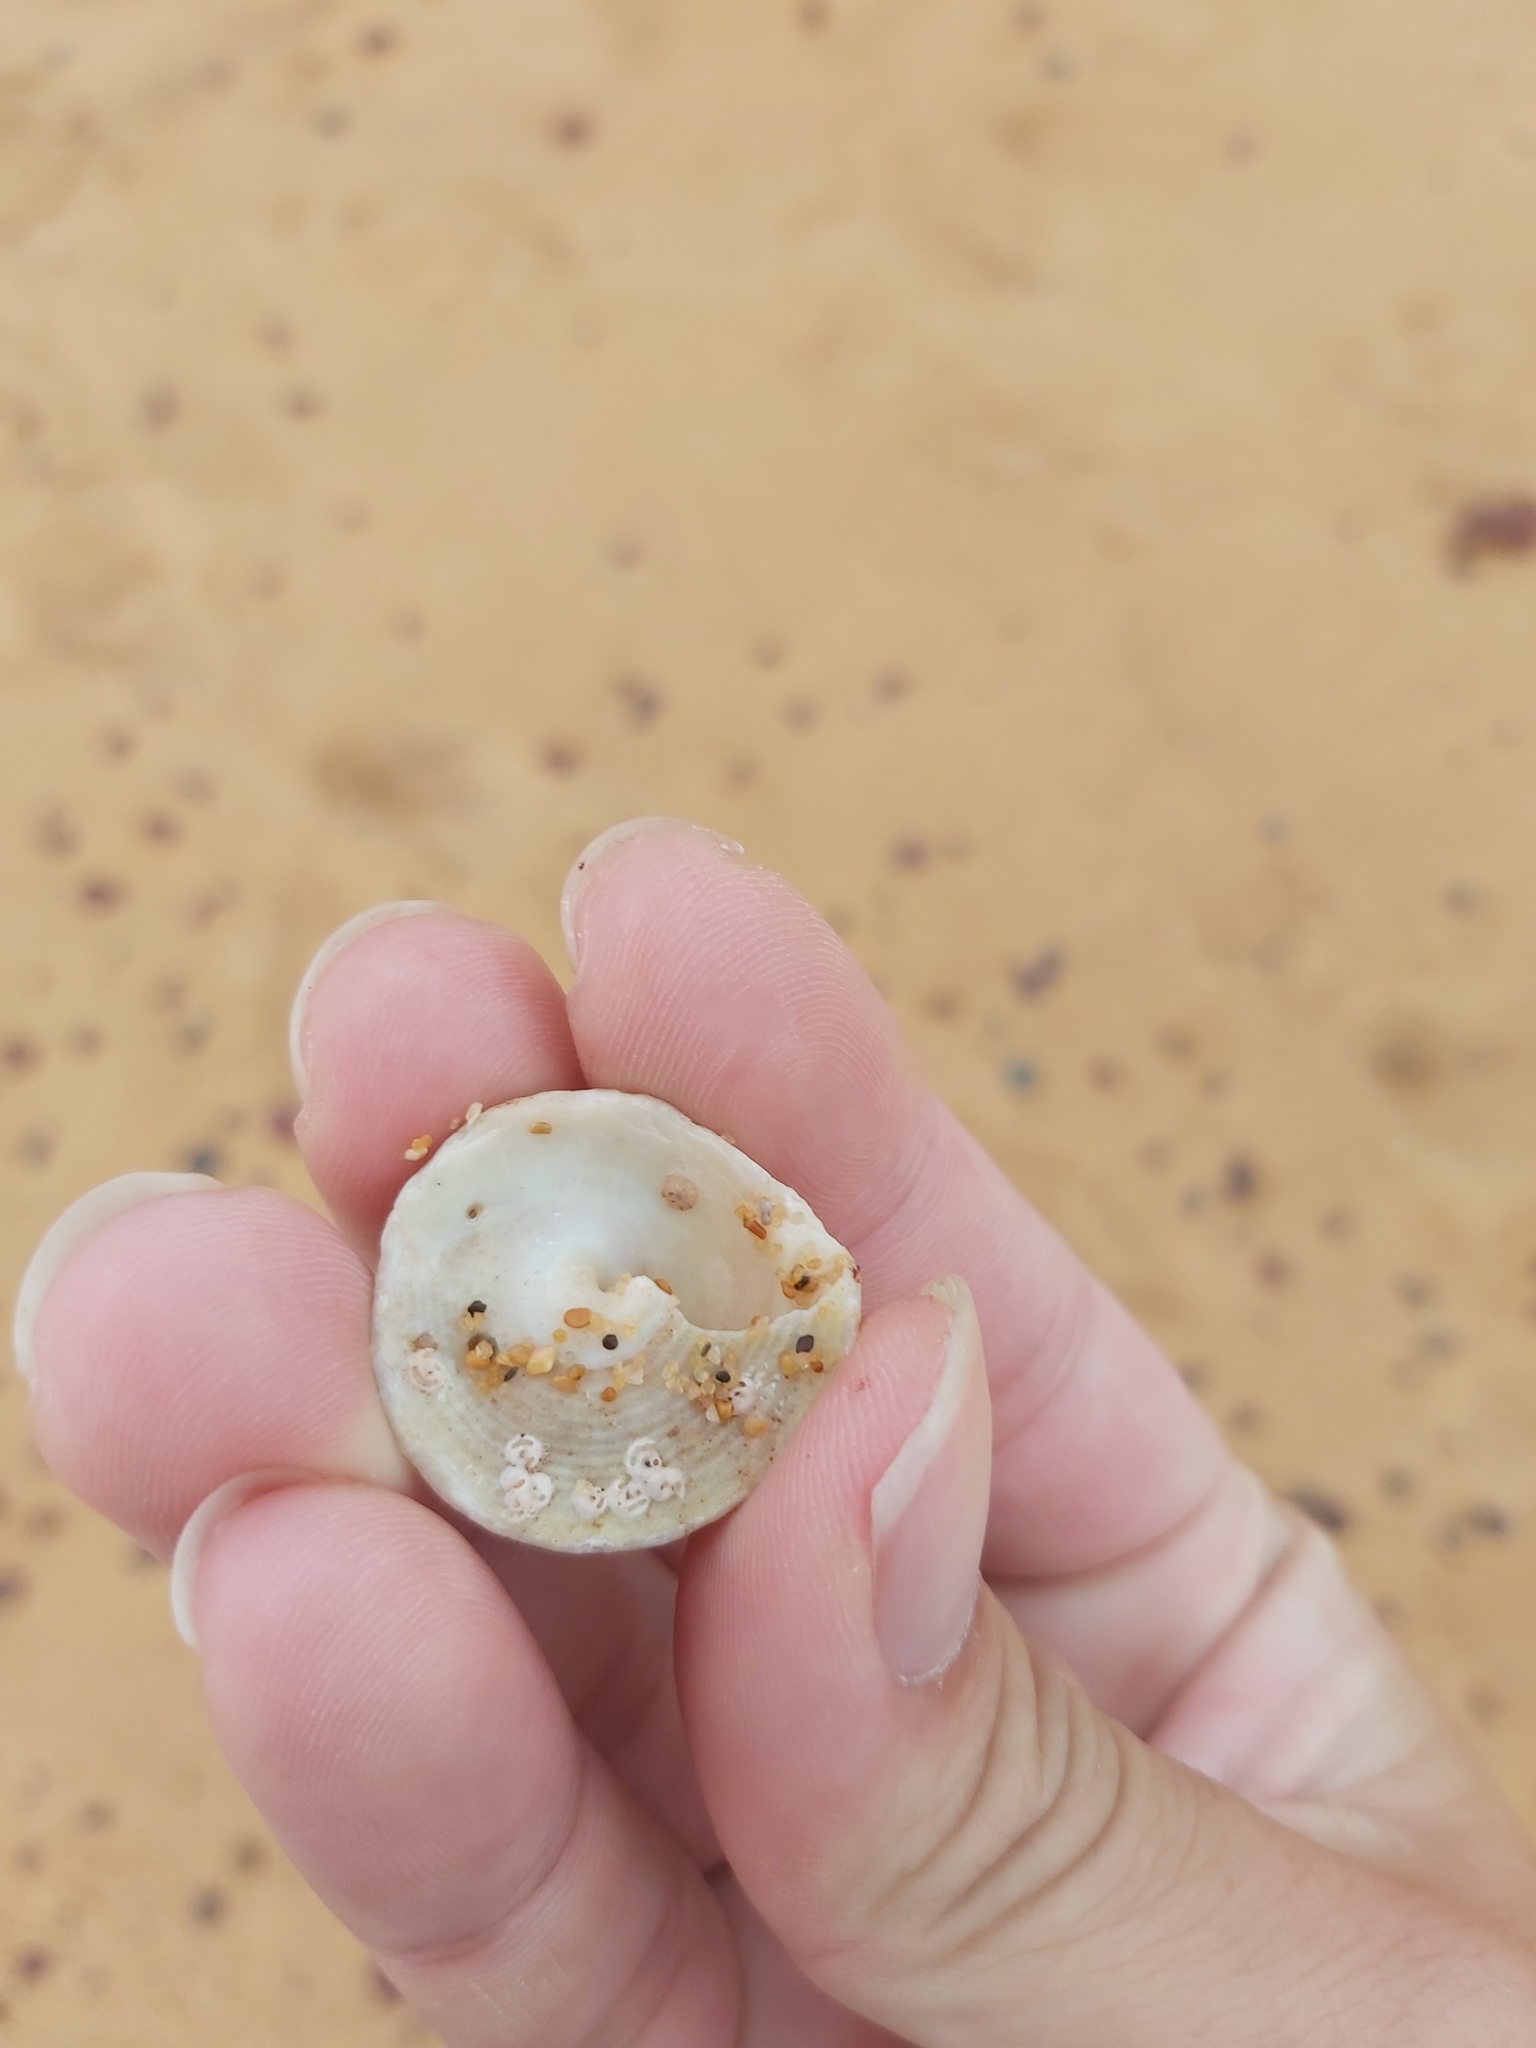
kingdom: Animalia
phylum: Mollusca
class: Gastropoda
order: Trochida
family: Turbinidae
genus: Astralium
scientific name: Astralium tentoriiforme
